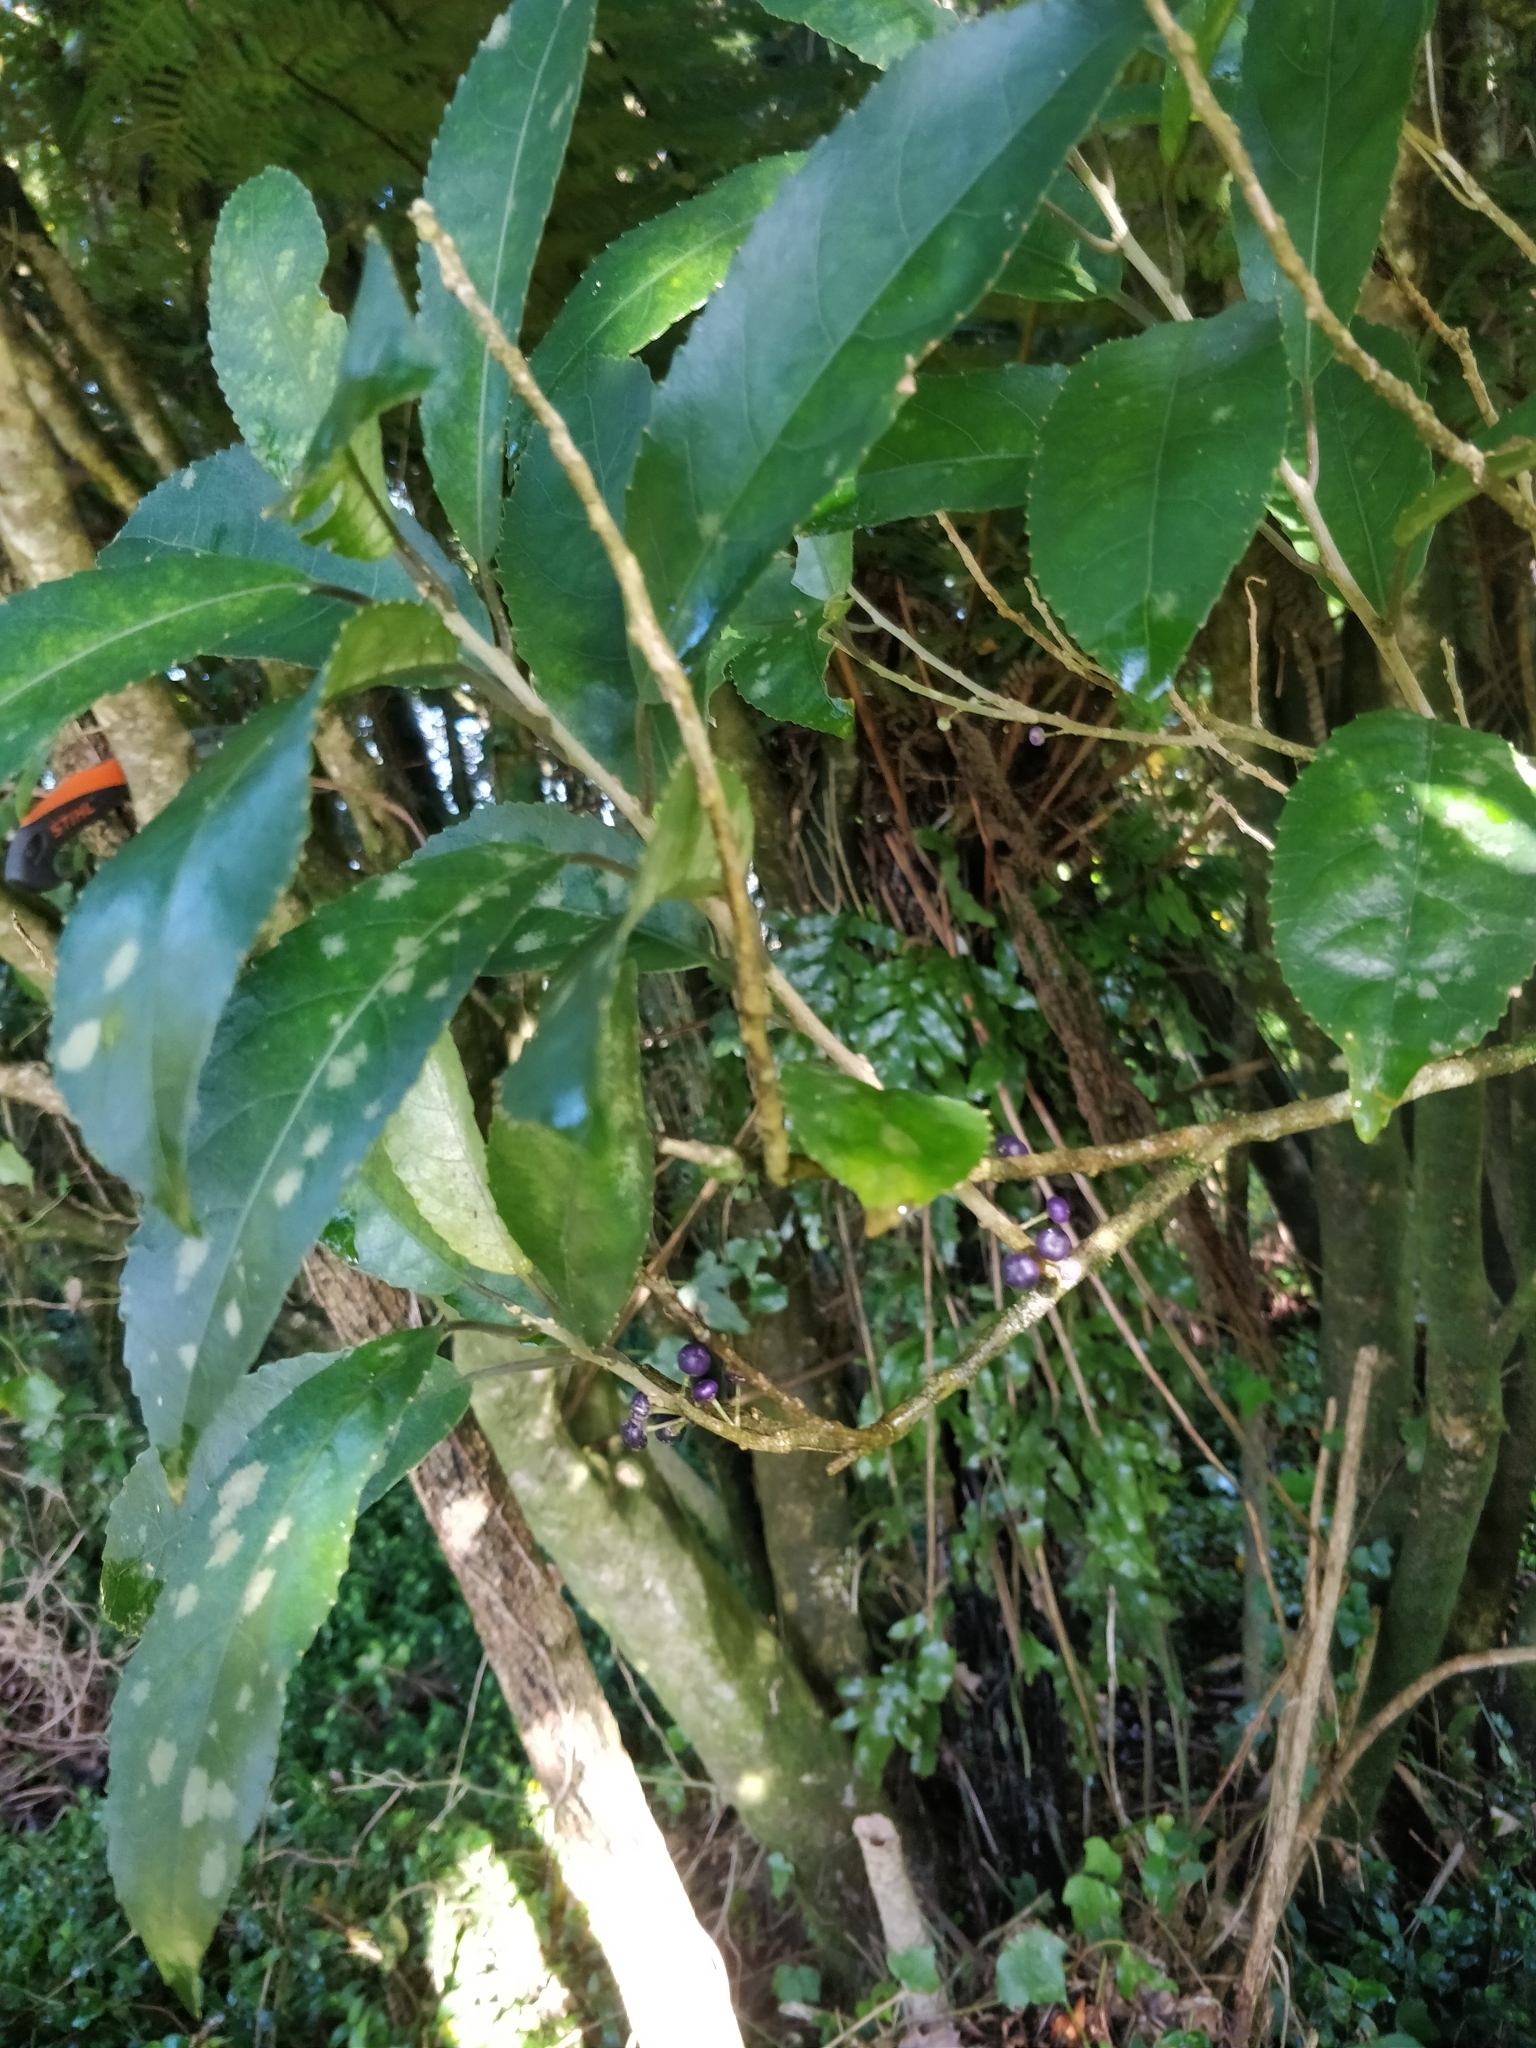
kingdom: Plantae
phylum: Tracheophyta
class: Magnoliopsida
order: Malpighiales
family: Violaceae
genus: Melicytus
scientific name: Melicytus ramiflorus
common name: Mahoe
